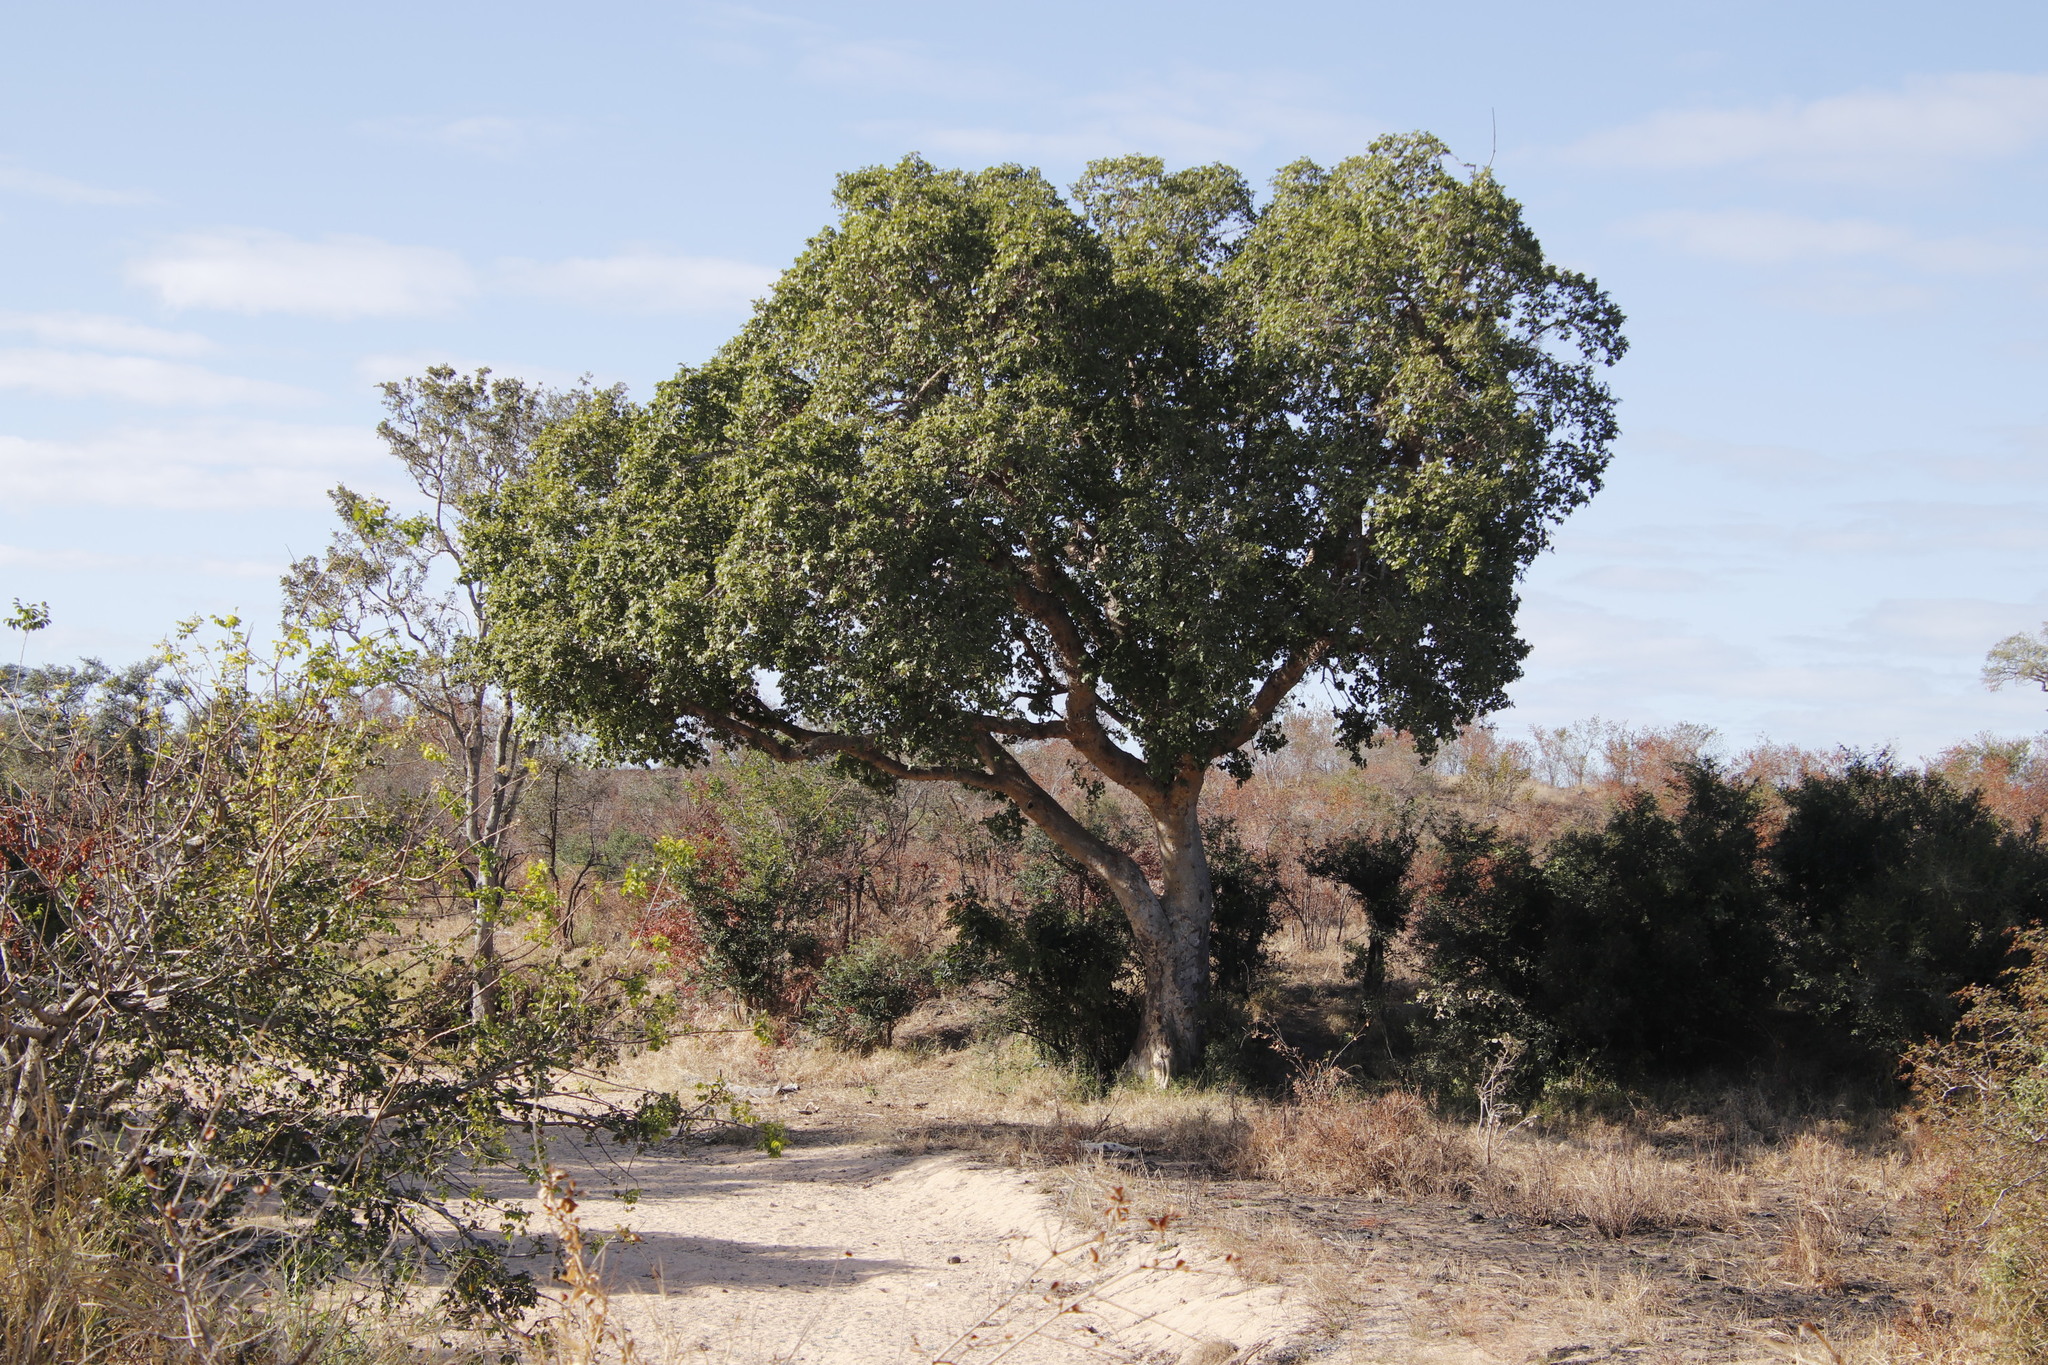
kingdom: Plantae
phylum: Tracheophyta
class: Magnoliopsida
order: Rosales
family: Moraceae
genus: Ficus
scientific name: Ficus sycomorus
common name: Sycomore
